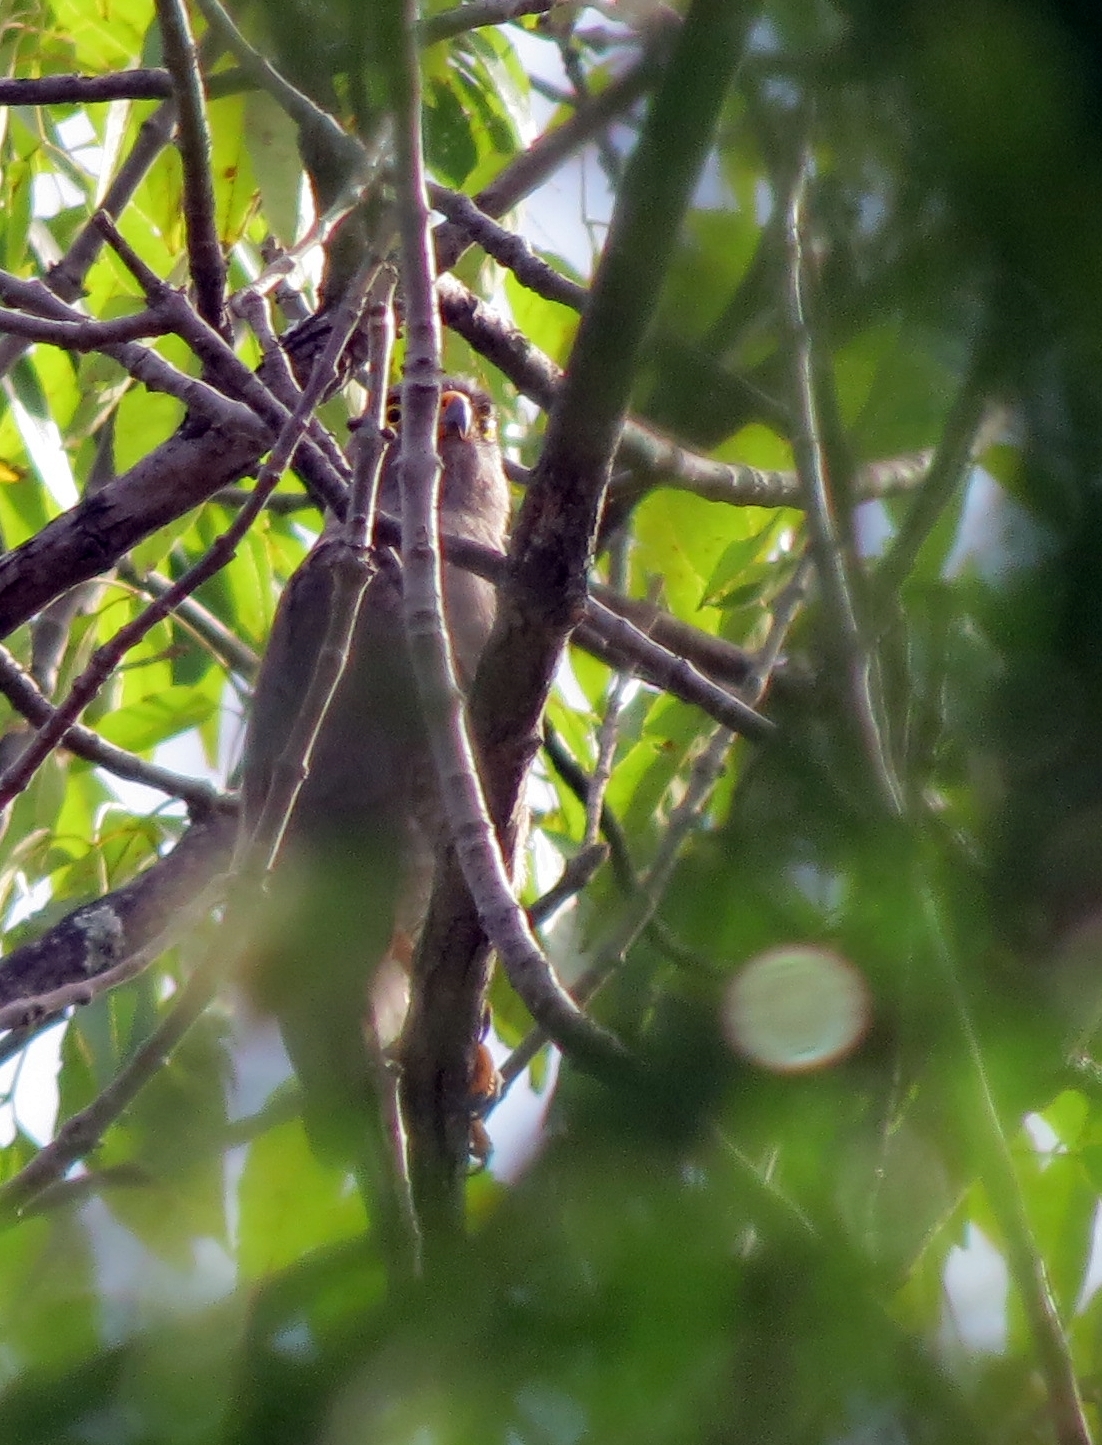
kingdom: Animalia
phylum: Chordata
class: Aves
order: Accipitriformes
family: Accipitridae
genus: Rupornis
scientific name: Rupornis magnirostris
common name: Roadside hawk
